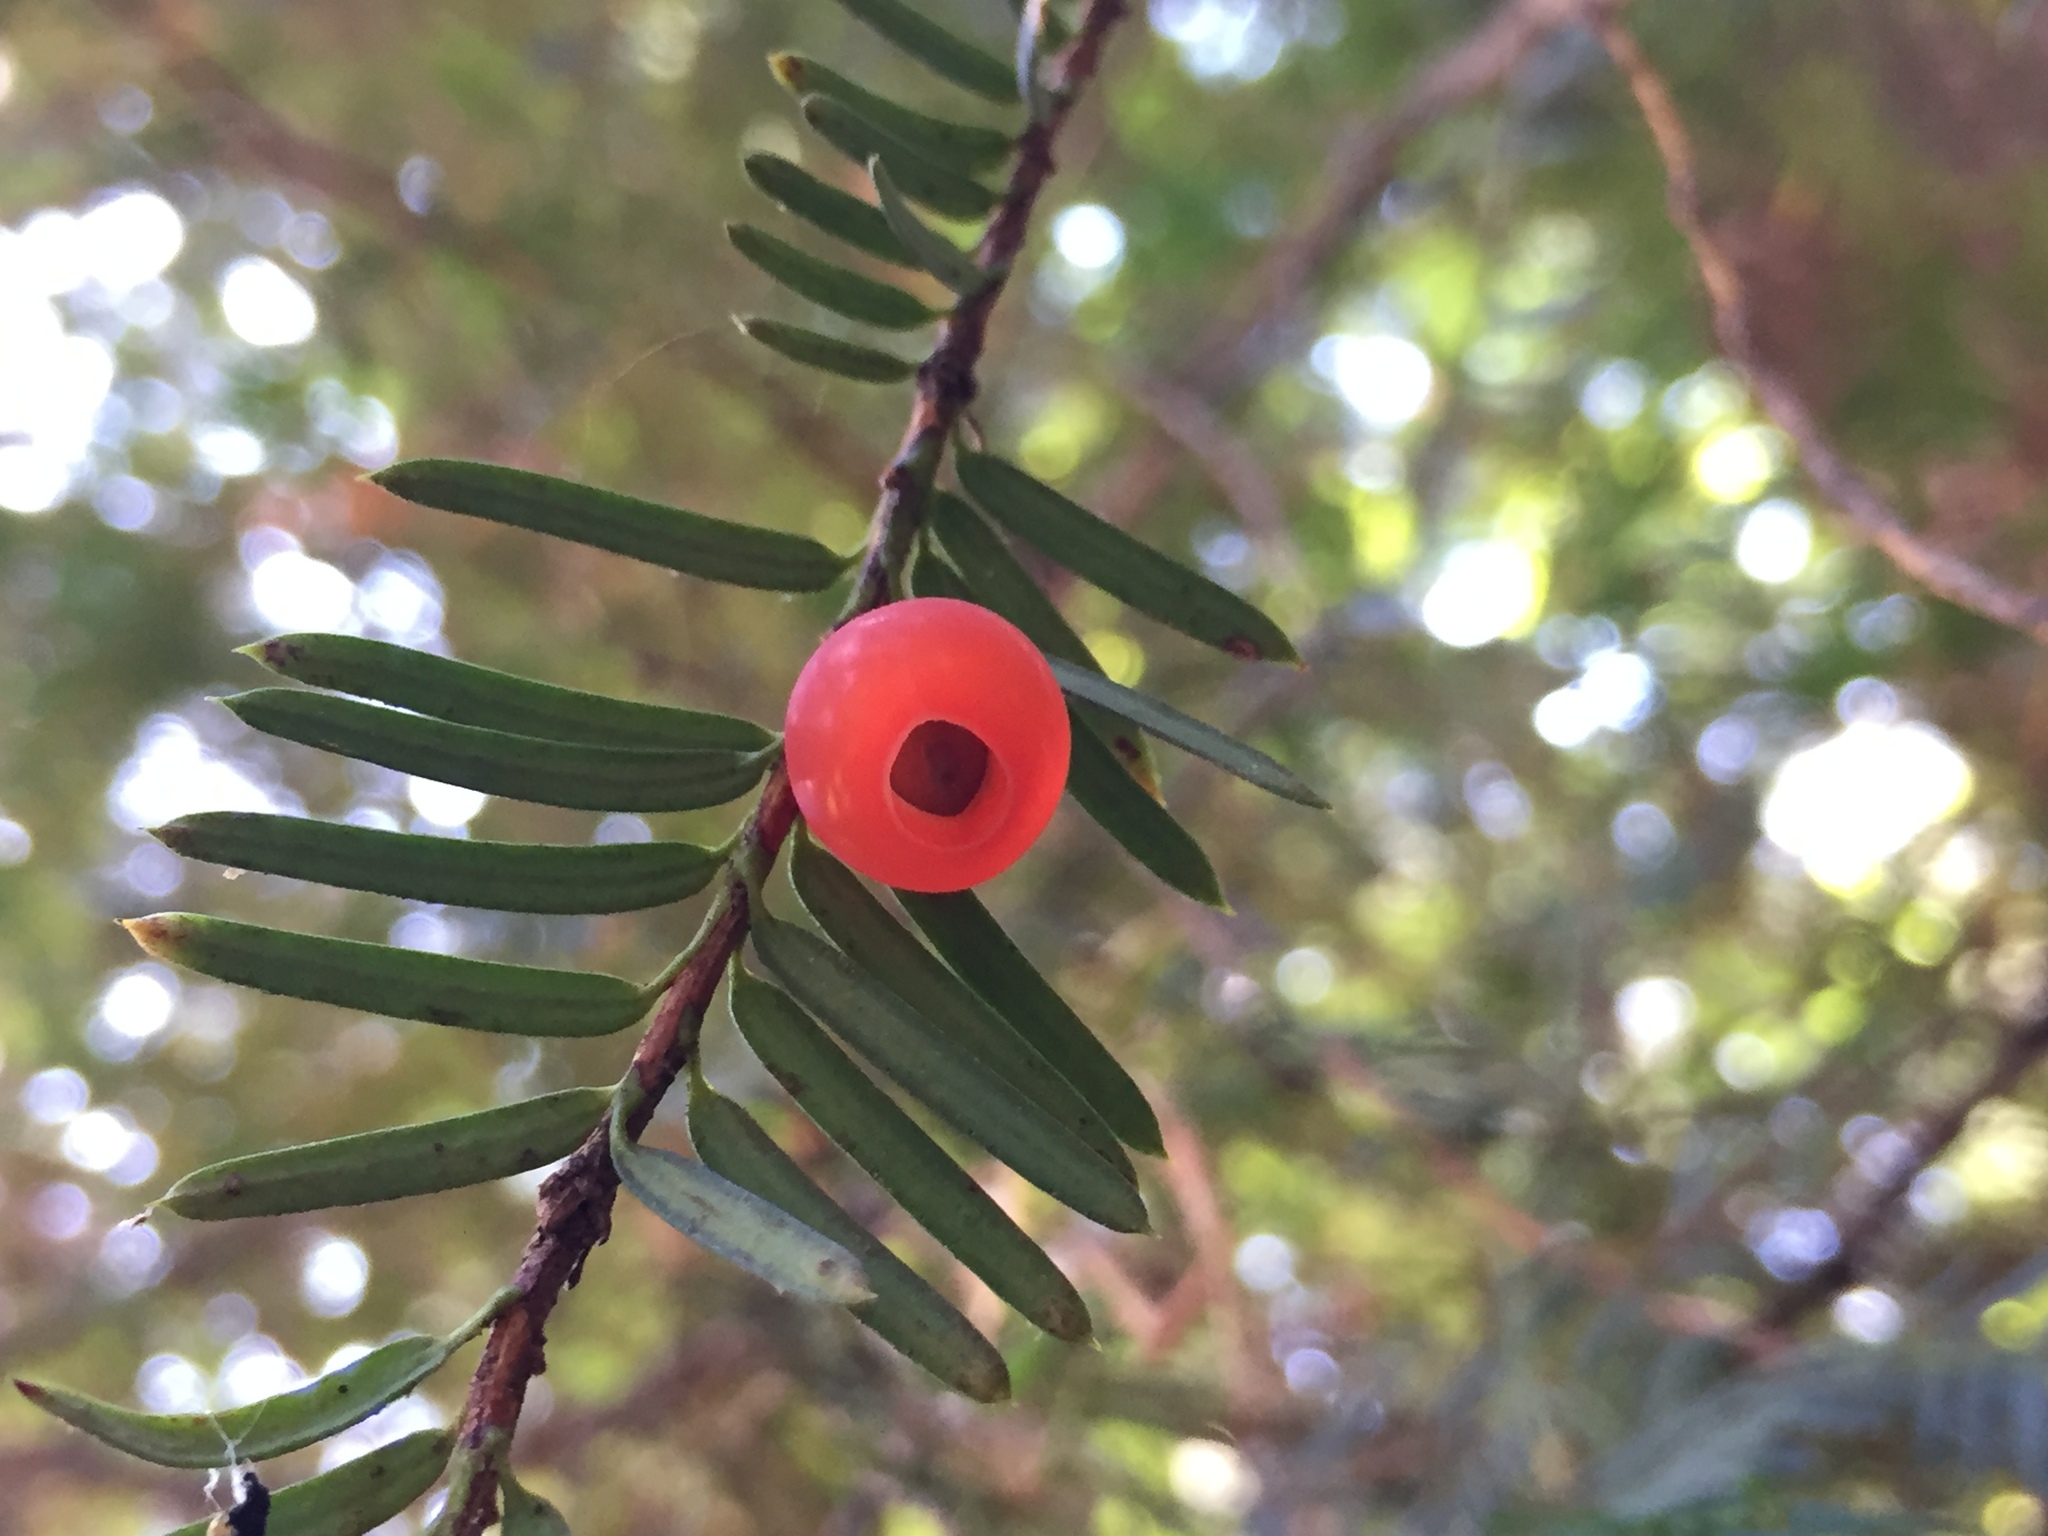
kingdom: Plantae
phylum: Tracheophyta
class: Pinopsida
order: Pinales
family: Taxaceae
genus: Taxus
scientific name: Taxus brevifolia
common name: Pacific yew
